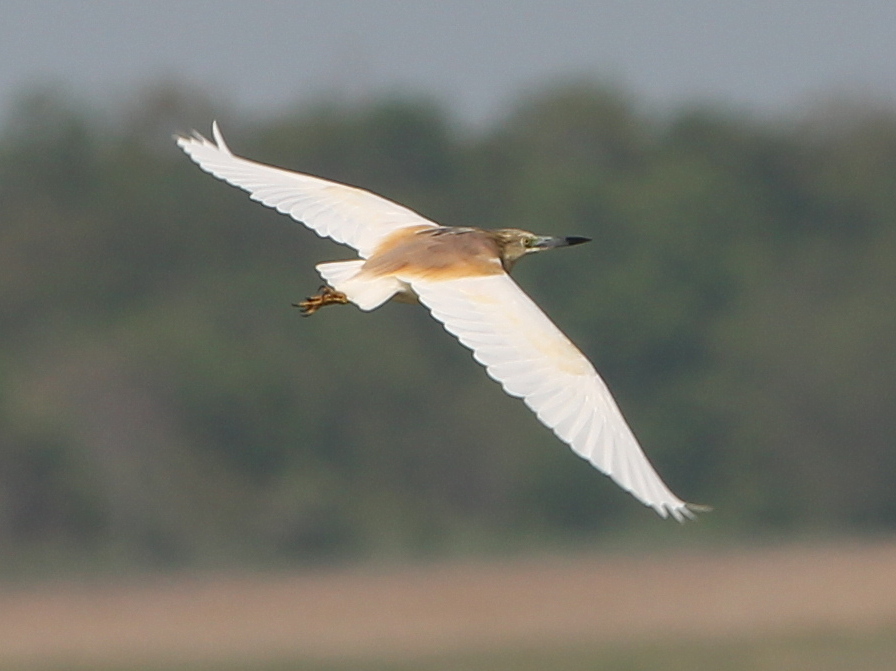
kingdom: Animalia
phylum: Chordata
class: Aves
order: Pelecaniformes
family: Ardeidae
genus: Ardeola
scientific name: Ardeola ralloides
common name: Squacco heron
